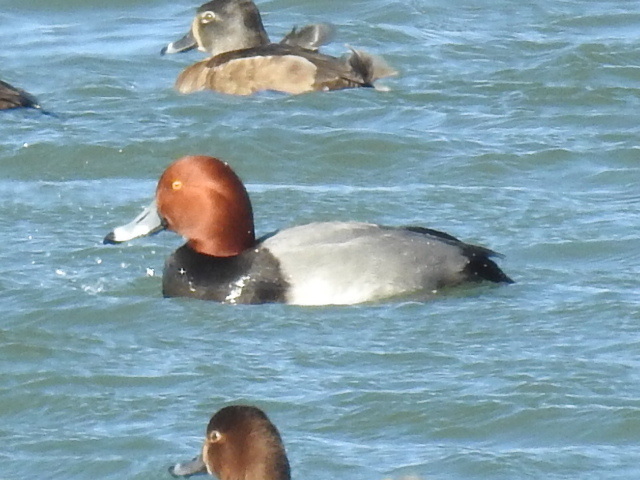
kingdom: Animalia
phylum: Chordata
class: Aves
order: Anseriformes
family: Anatidae
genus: Aythya
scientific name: Aythya americana
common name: Redhead
